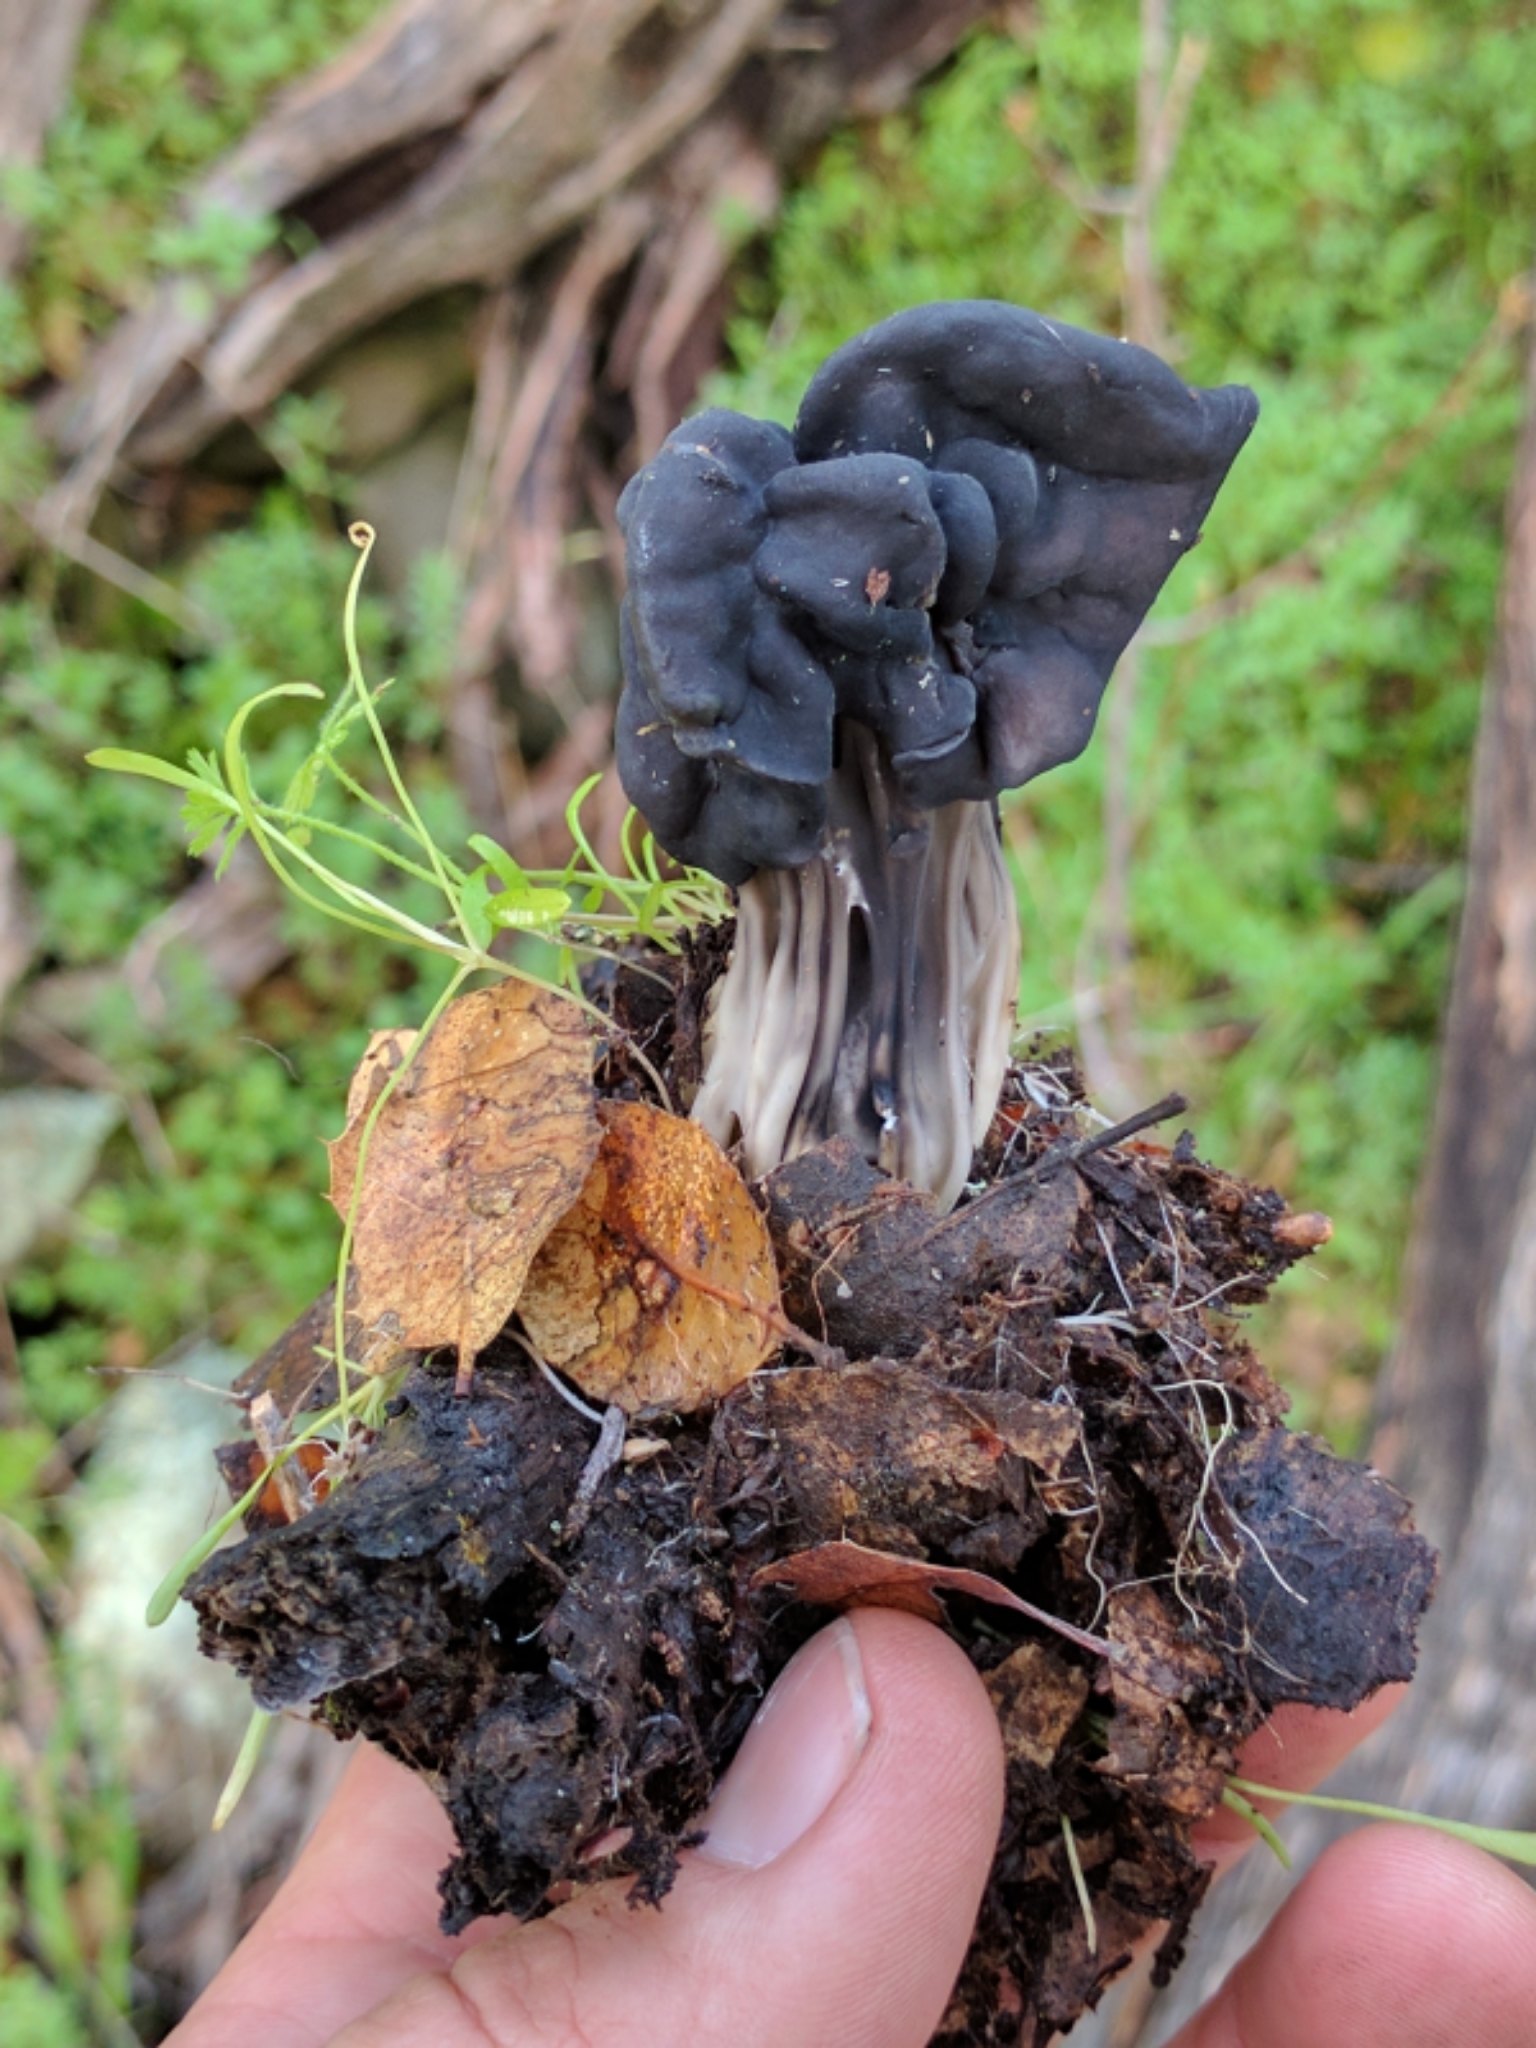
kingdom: Fungi
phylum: Ascomycota
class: Pezizomycetes
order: Pezizales
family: Helvellaceae
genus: Helvella
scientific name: Helvella dryophila
